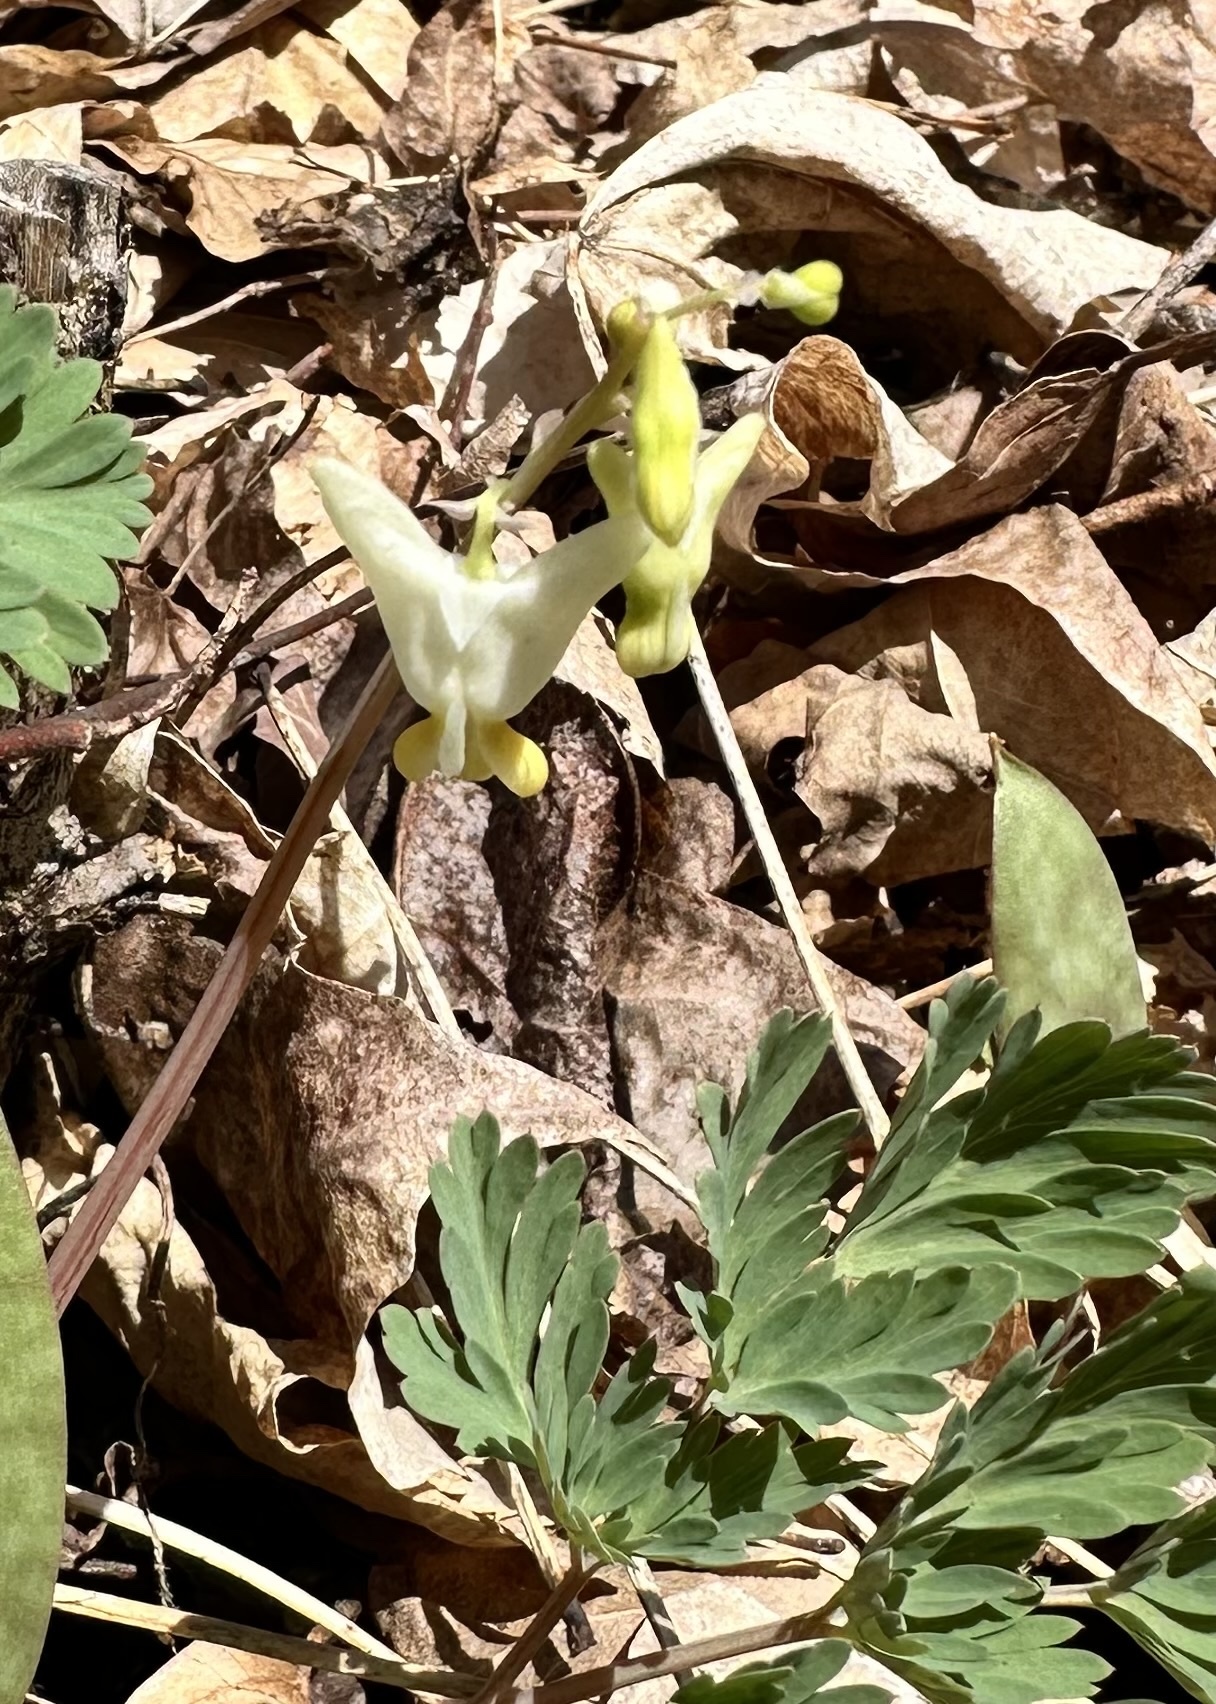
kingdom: Plantae
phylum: Tracheophyta
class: Magnoliopsida
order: Ranunculales
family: Papaveraceae
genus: Dicentra
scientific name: Dicentra cucullaria
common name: Dutchman's breeches
